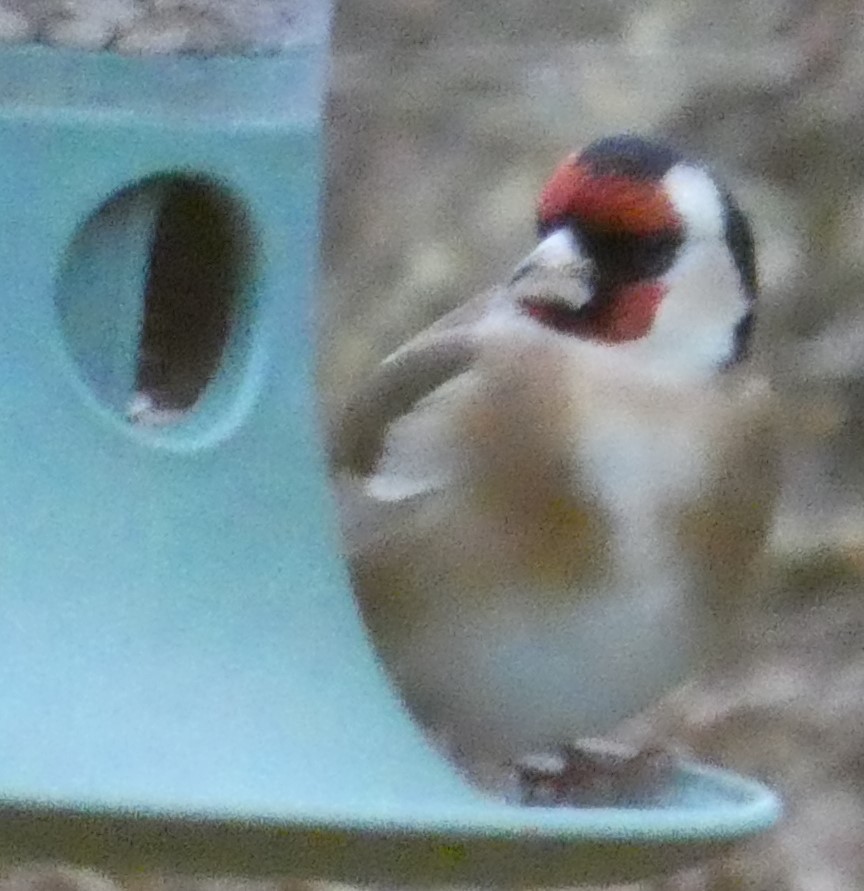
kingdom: Animalia
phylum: Chordata
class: Aves
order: Passeriformes
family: Fringillidae
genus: Carduelis
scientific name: Carduelis carduelis
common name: European goldfinch
